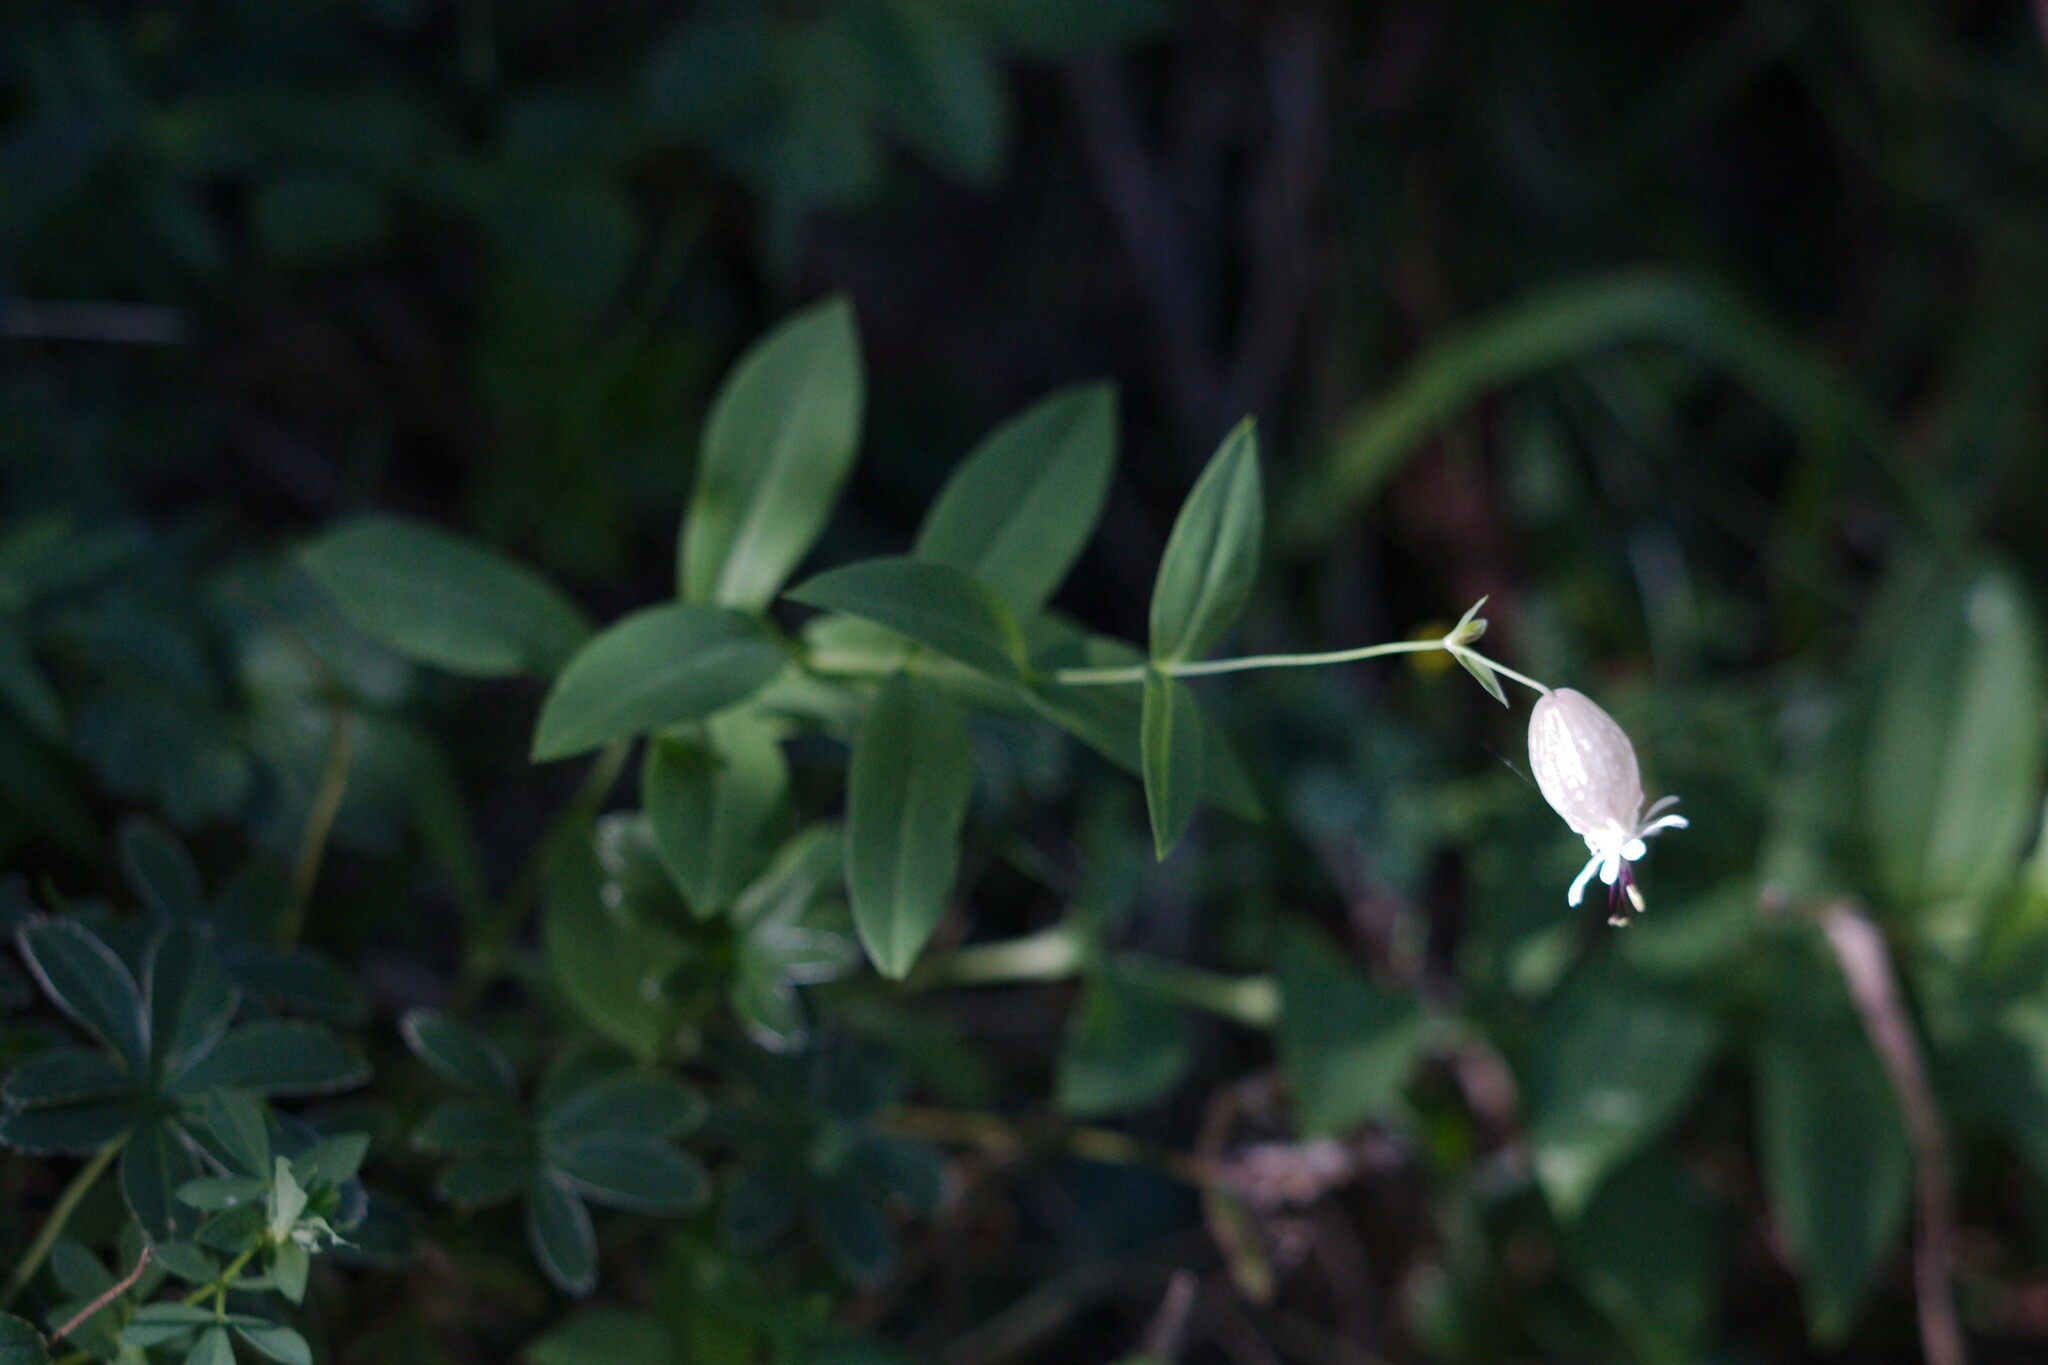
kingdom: Plantae
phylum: Tracheophyta
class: Magnoliopsida
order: Caryophyllales
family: Caryophyllaceae
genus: Silene
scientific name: Silene vulgaris
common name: Bladder campion
